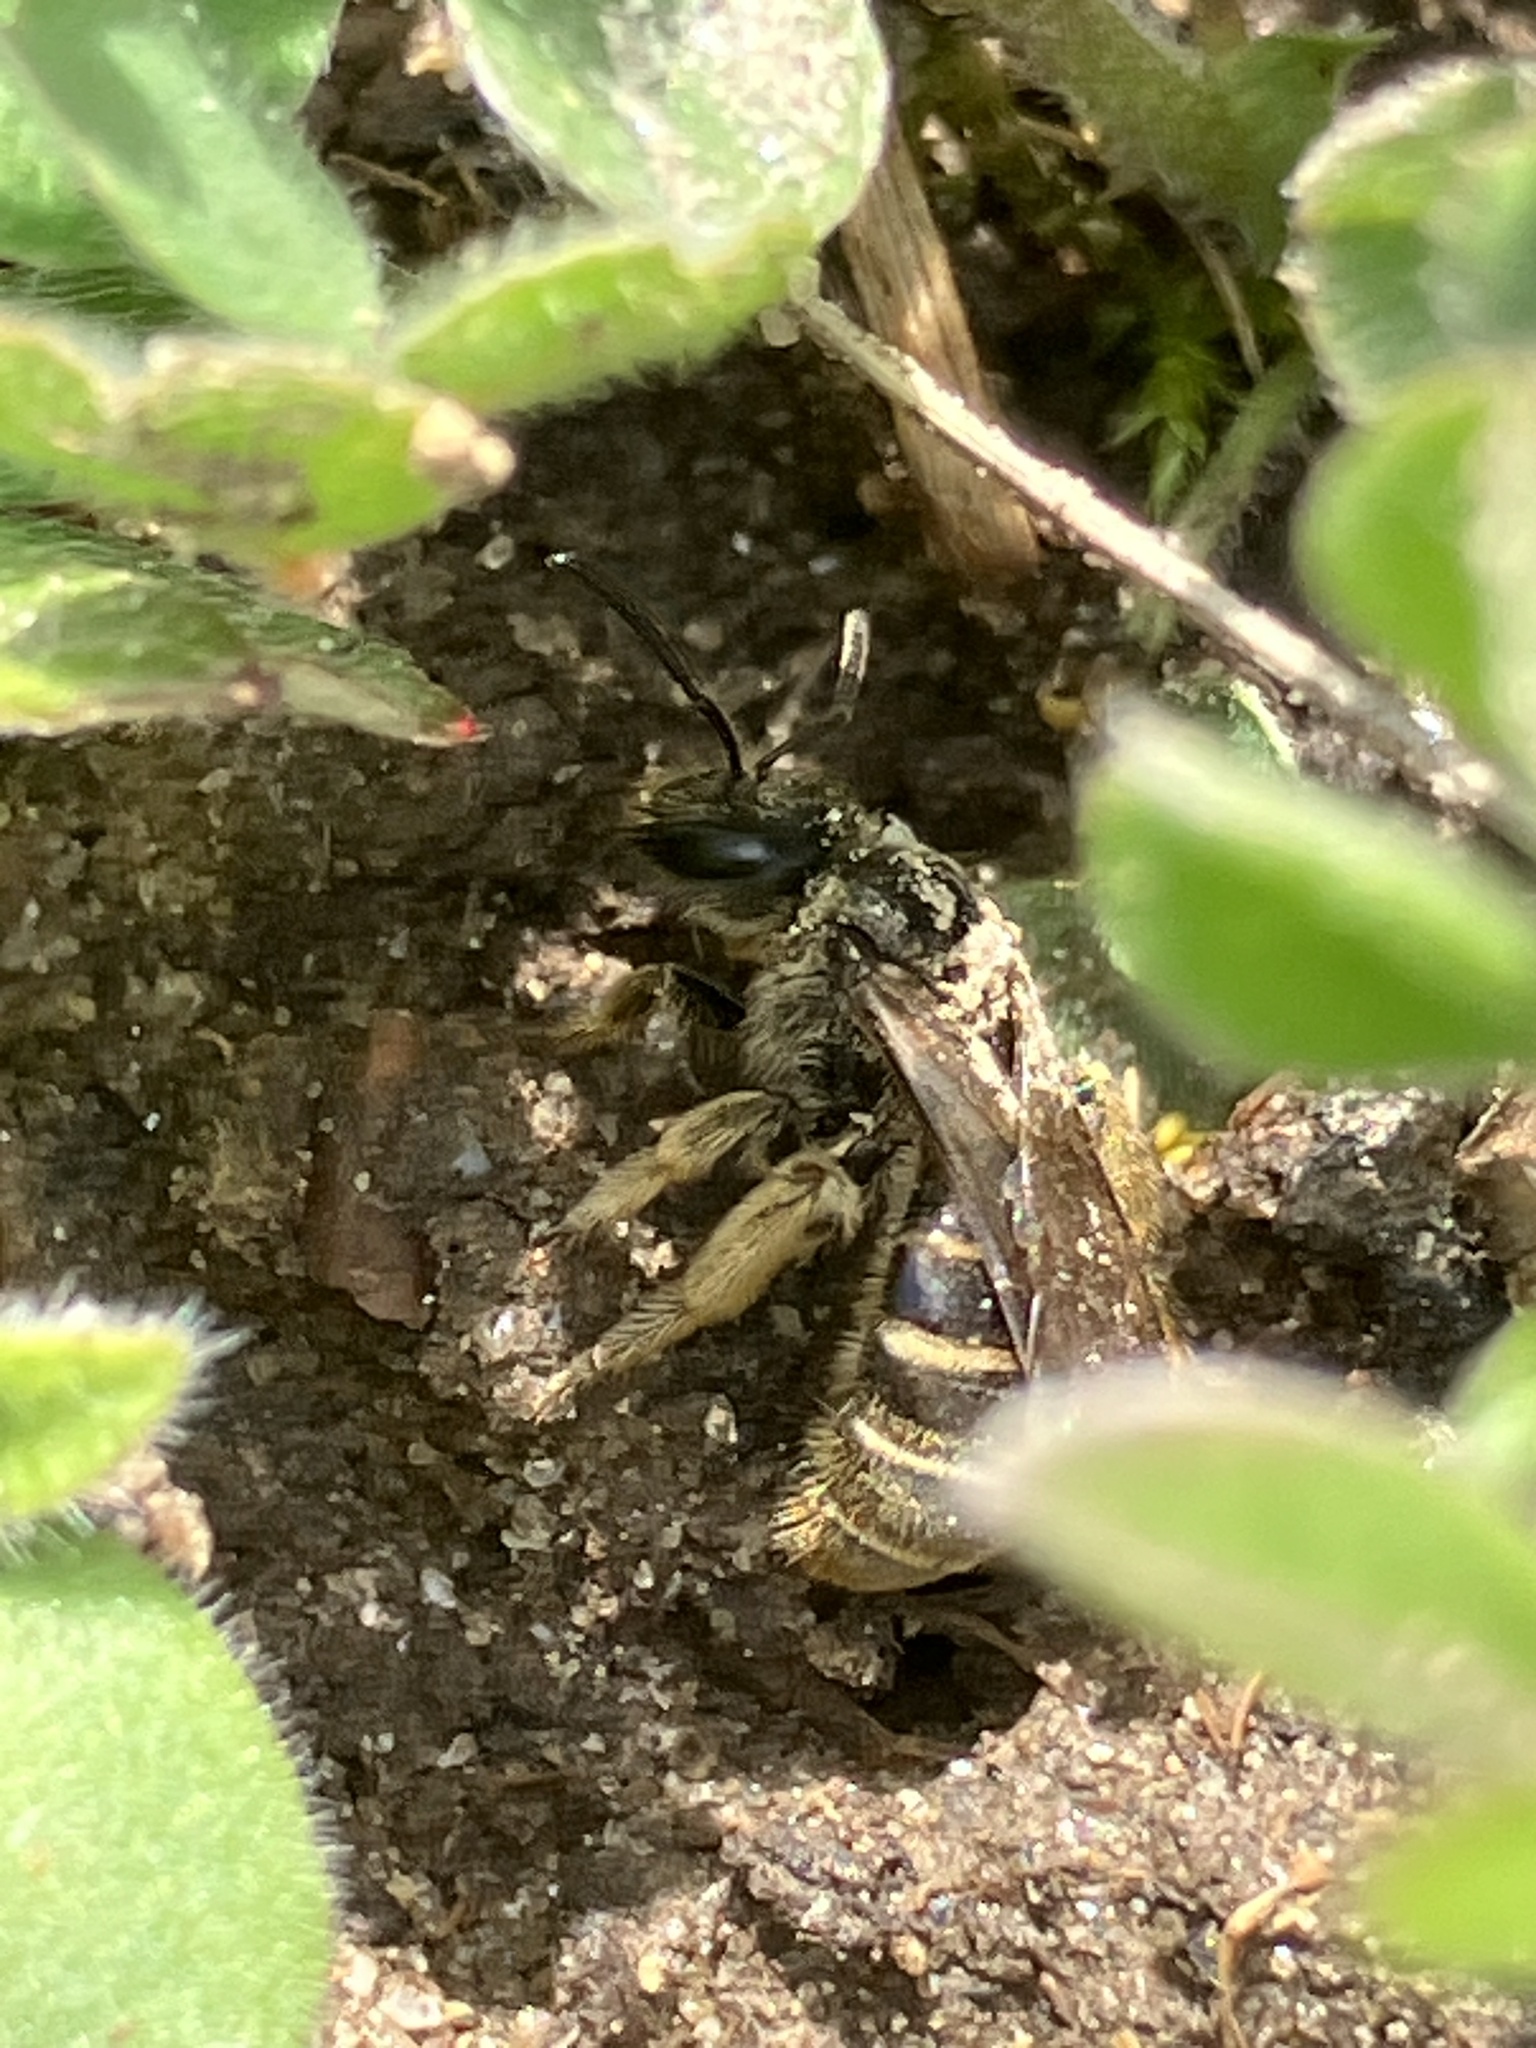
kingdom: Animalia
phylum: Arthropoda
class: Insecta
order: Hymenoptera
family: Halictidae
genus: Lasioglossum
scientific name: Lasioglossum marginatum
